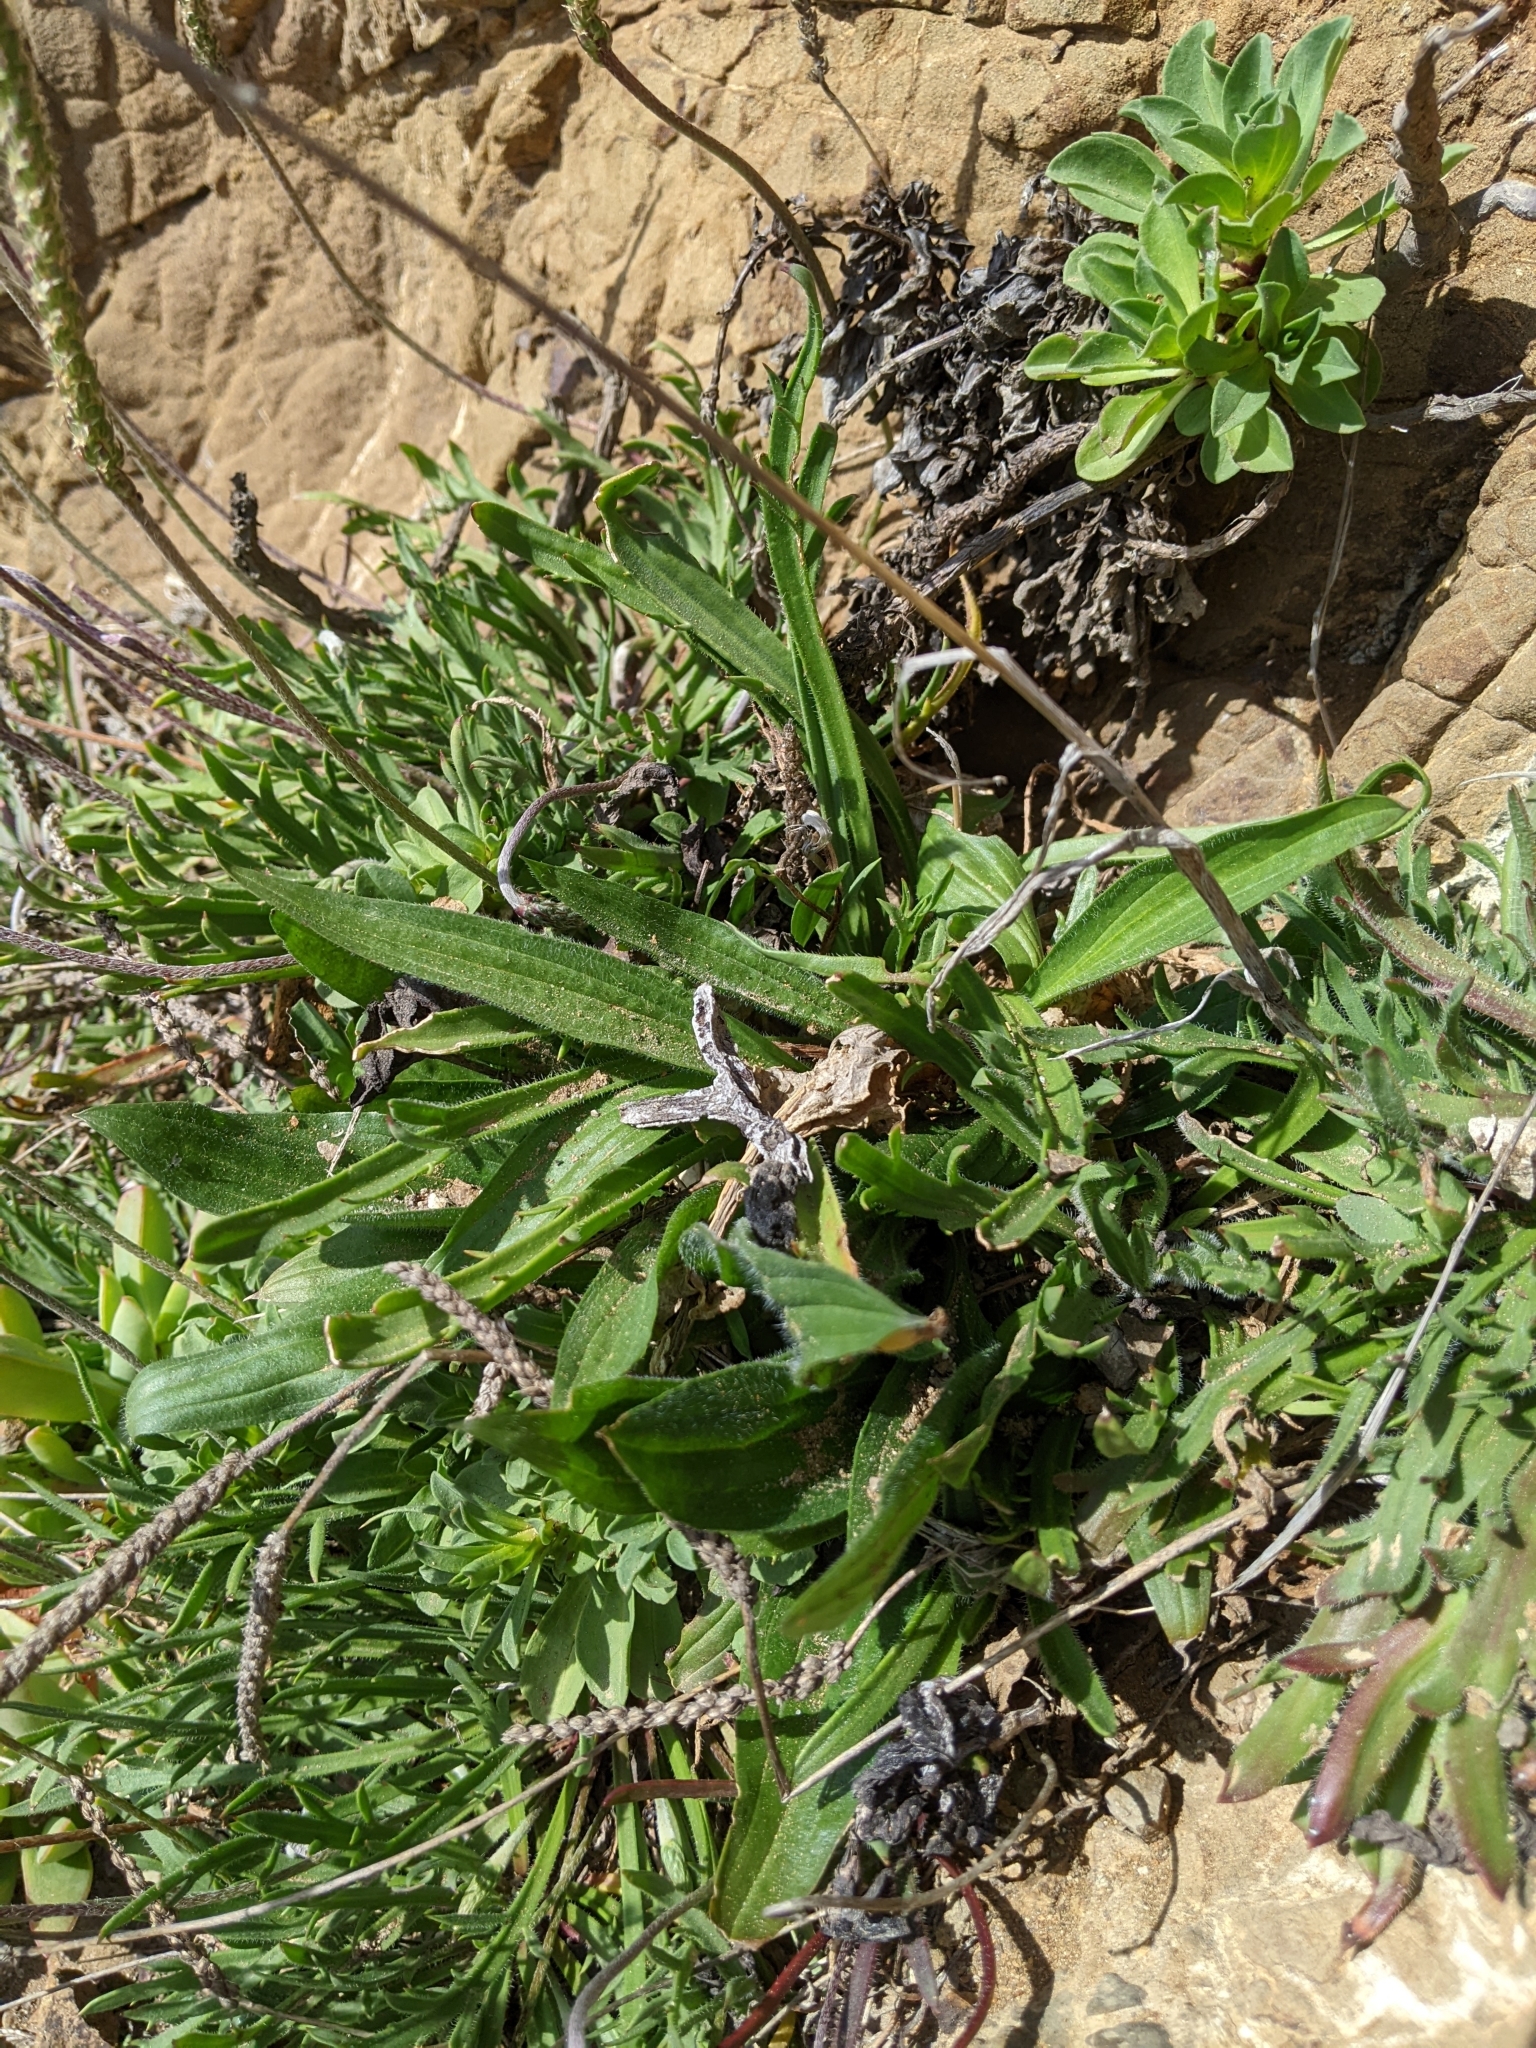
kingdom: Plantae
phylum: Tracheophyta
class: Magnoliopsida
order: Lamiales
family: Plantaginaceae
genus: Plantago
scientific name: Plantago lanceolata
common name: Ribwort plantain
